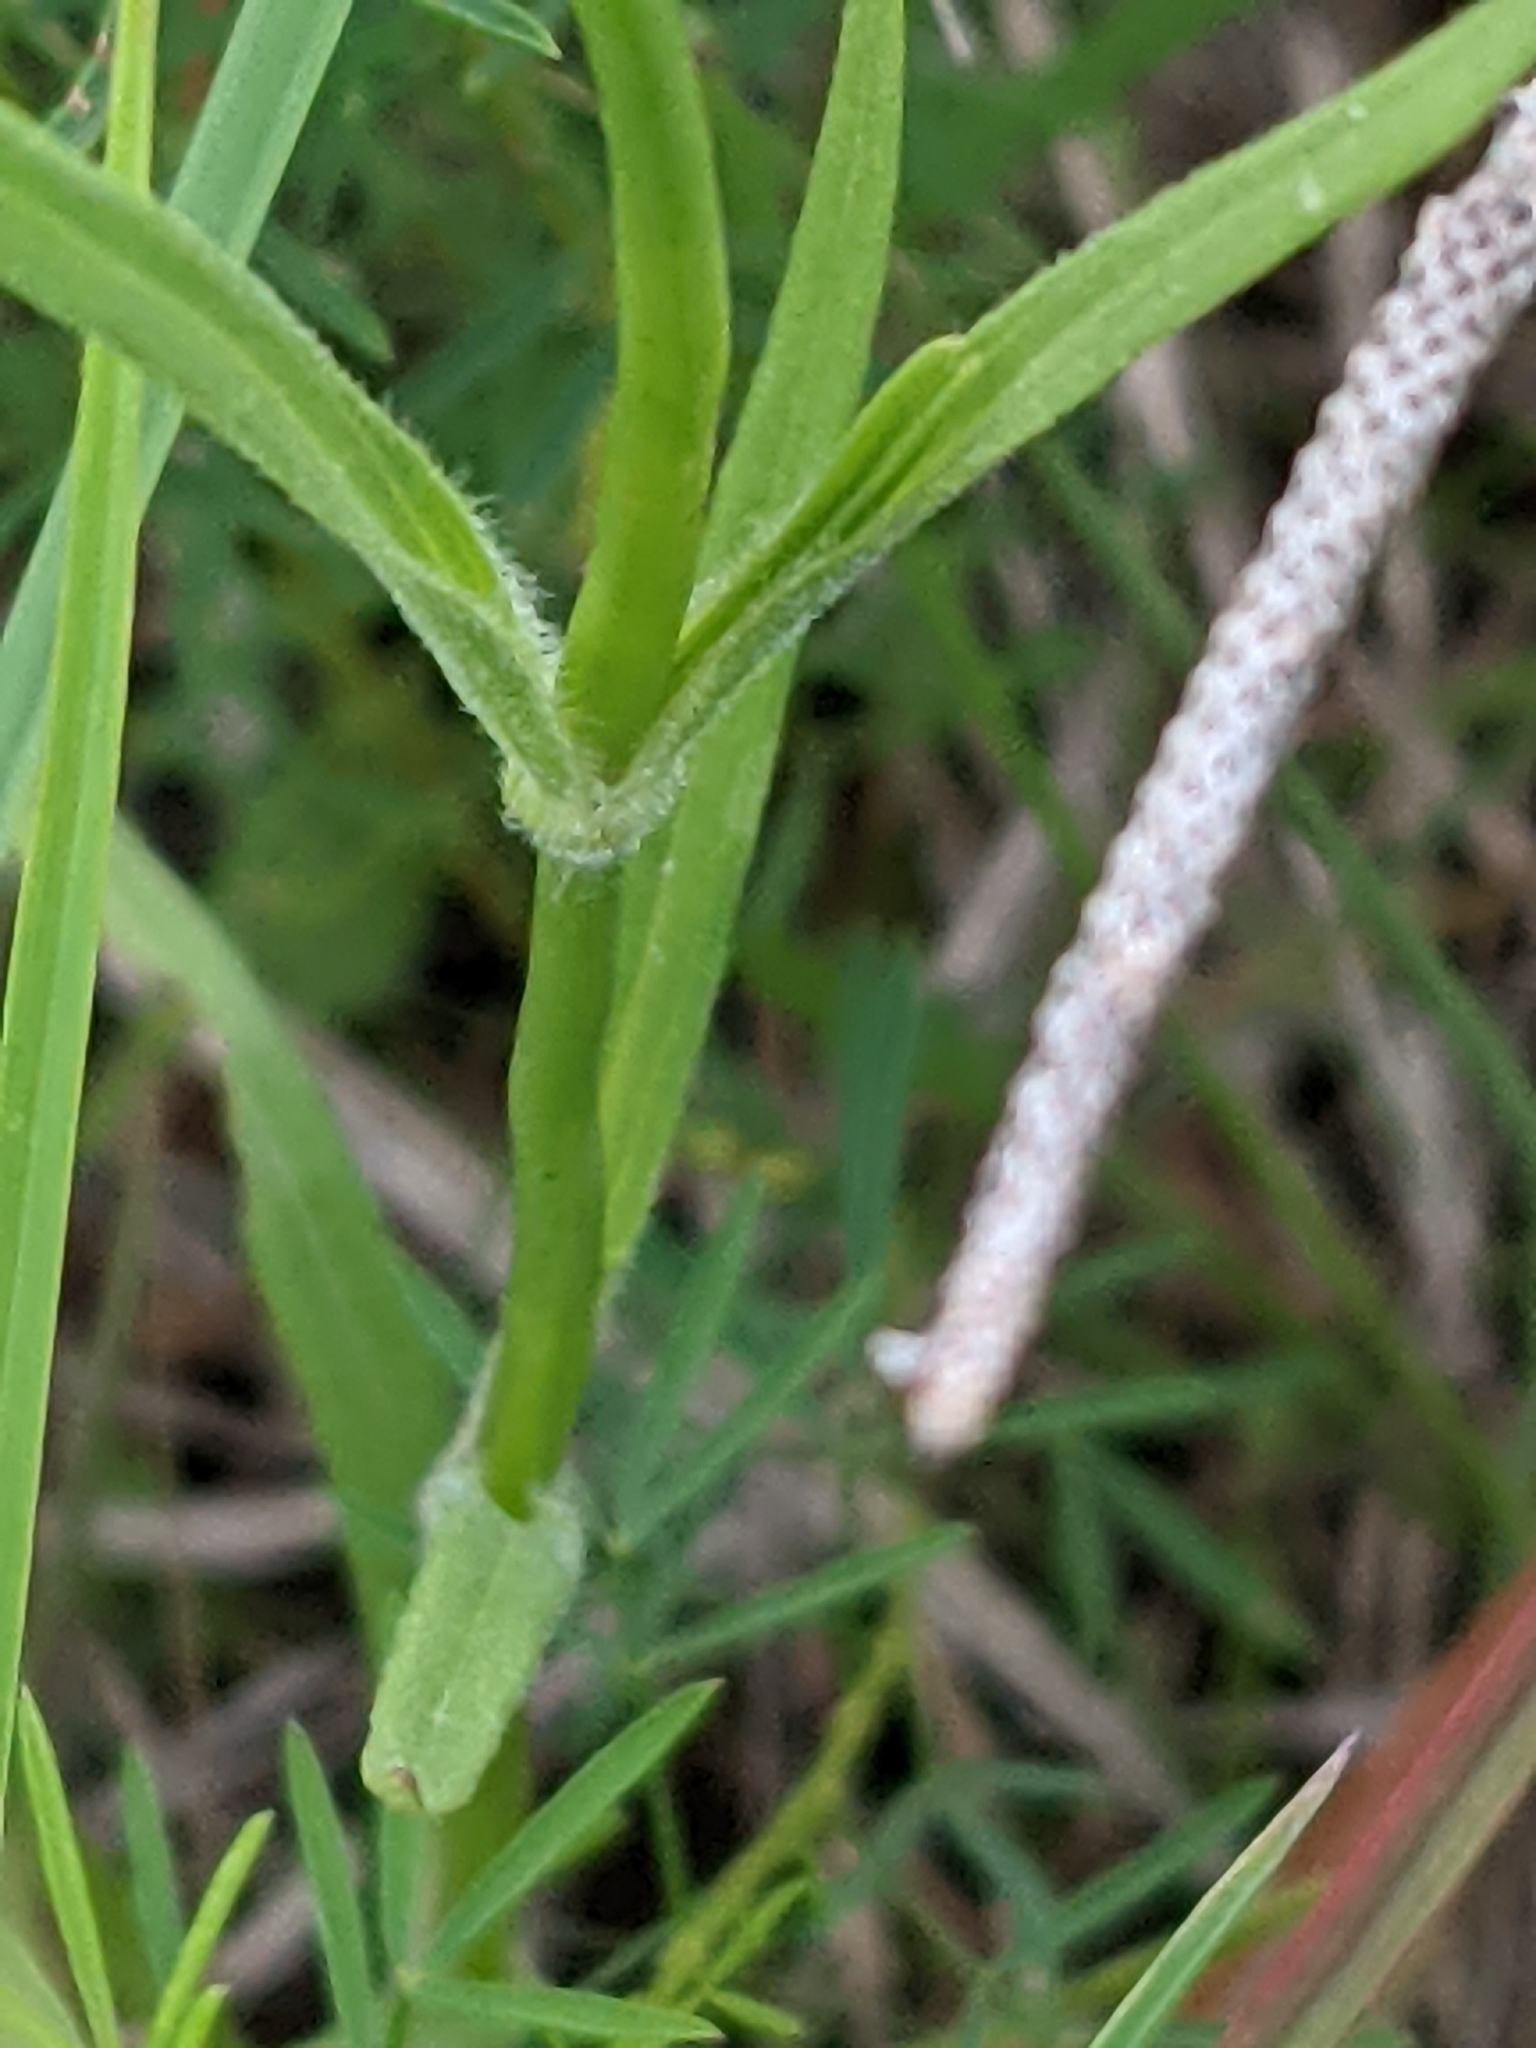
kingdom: Plantae
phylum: Tracheophyta
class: Magnoliopsida
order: Caryophyllales
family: Caryophyllaceae
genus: Dianthus
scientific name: Dianthus armeria
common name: Deptford pink
